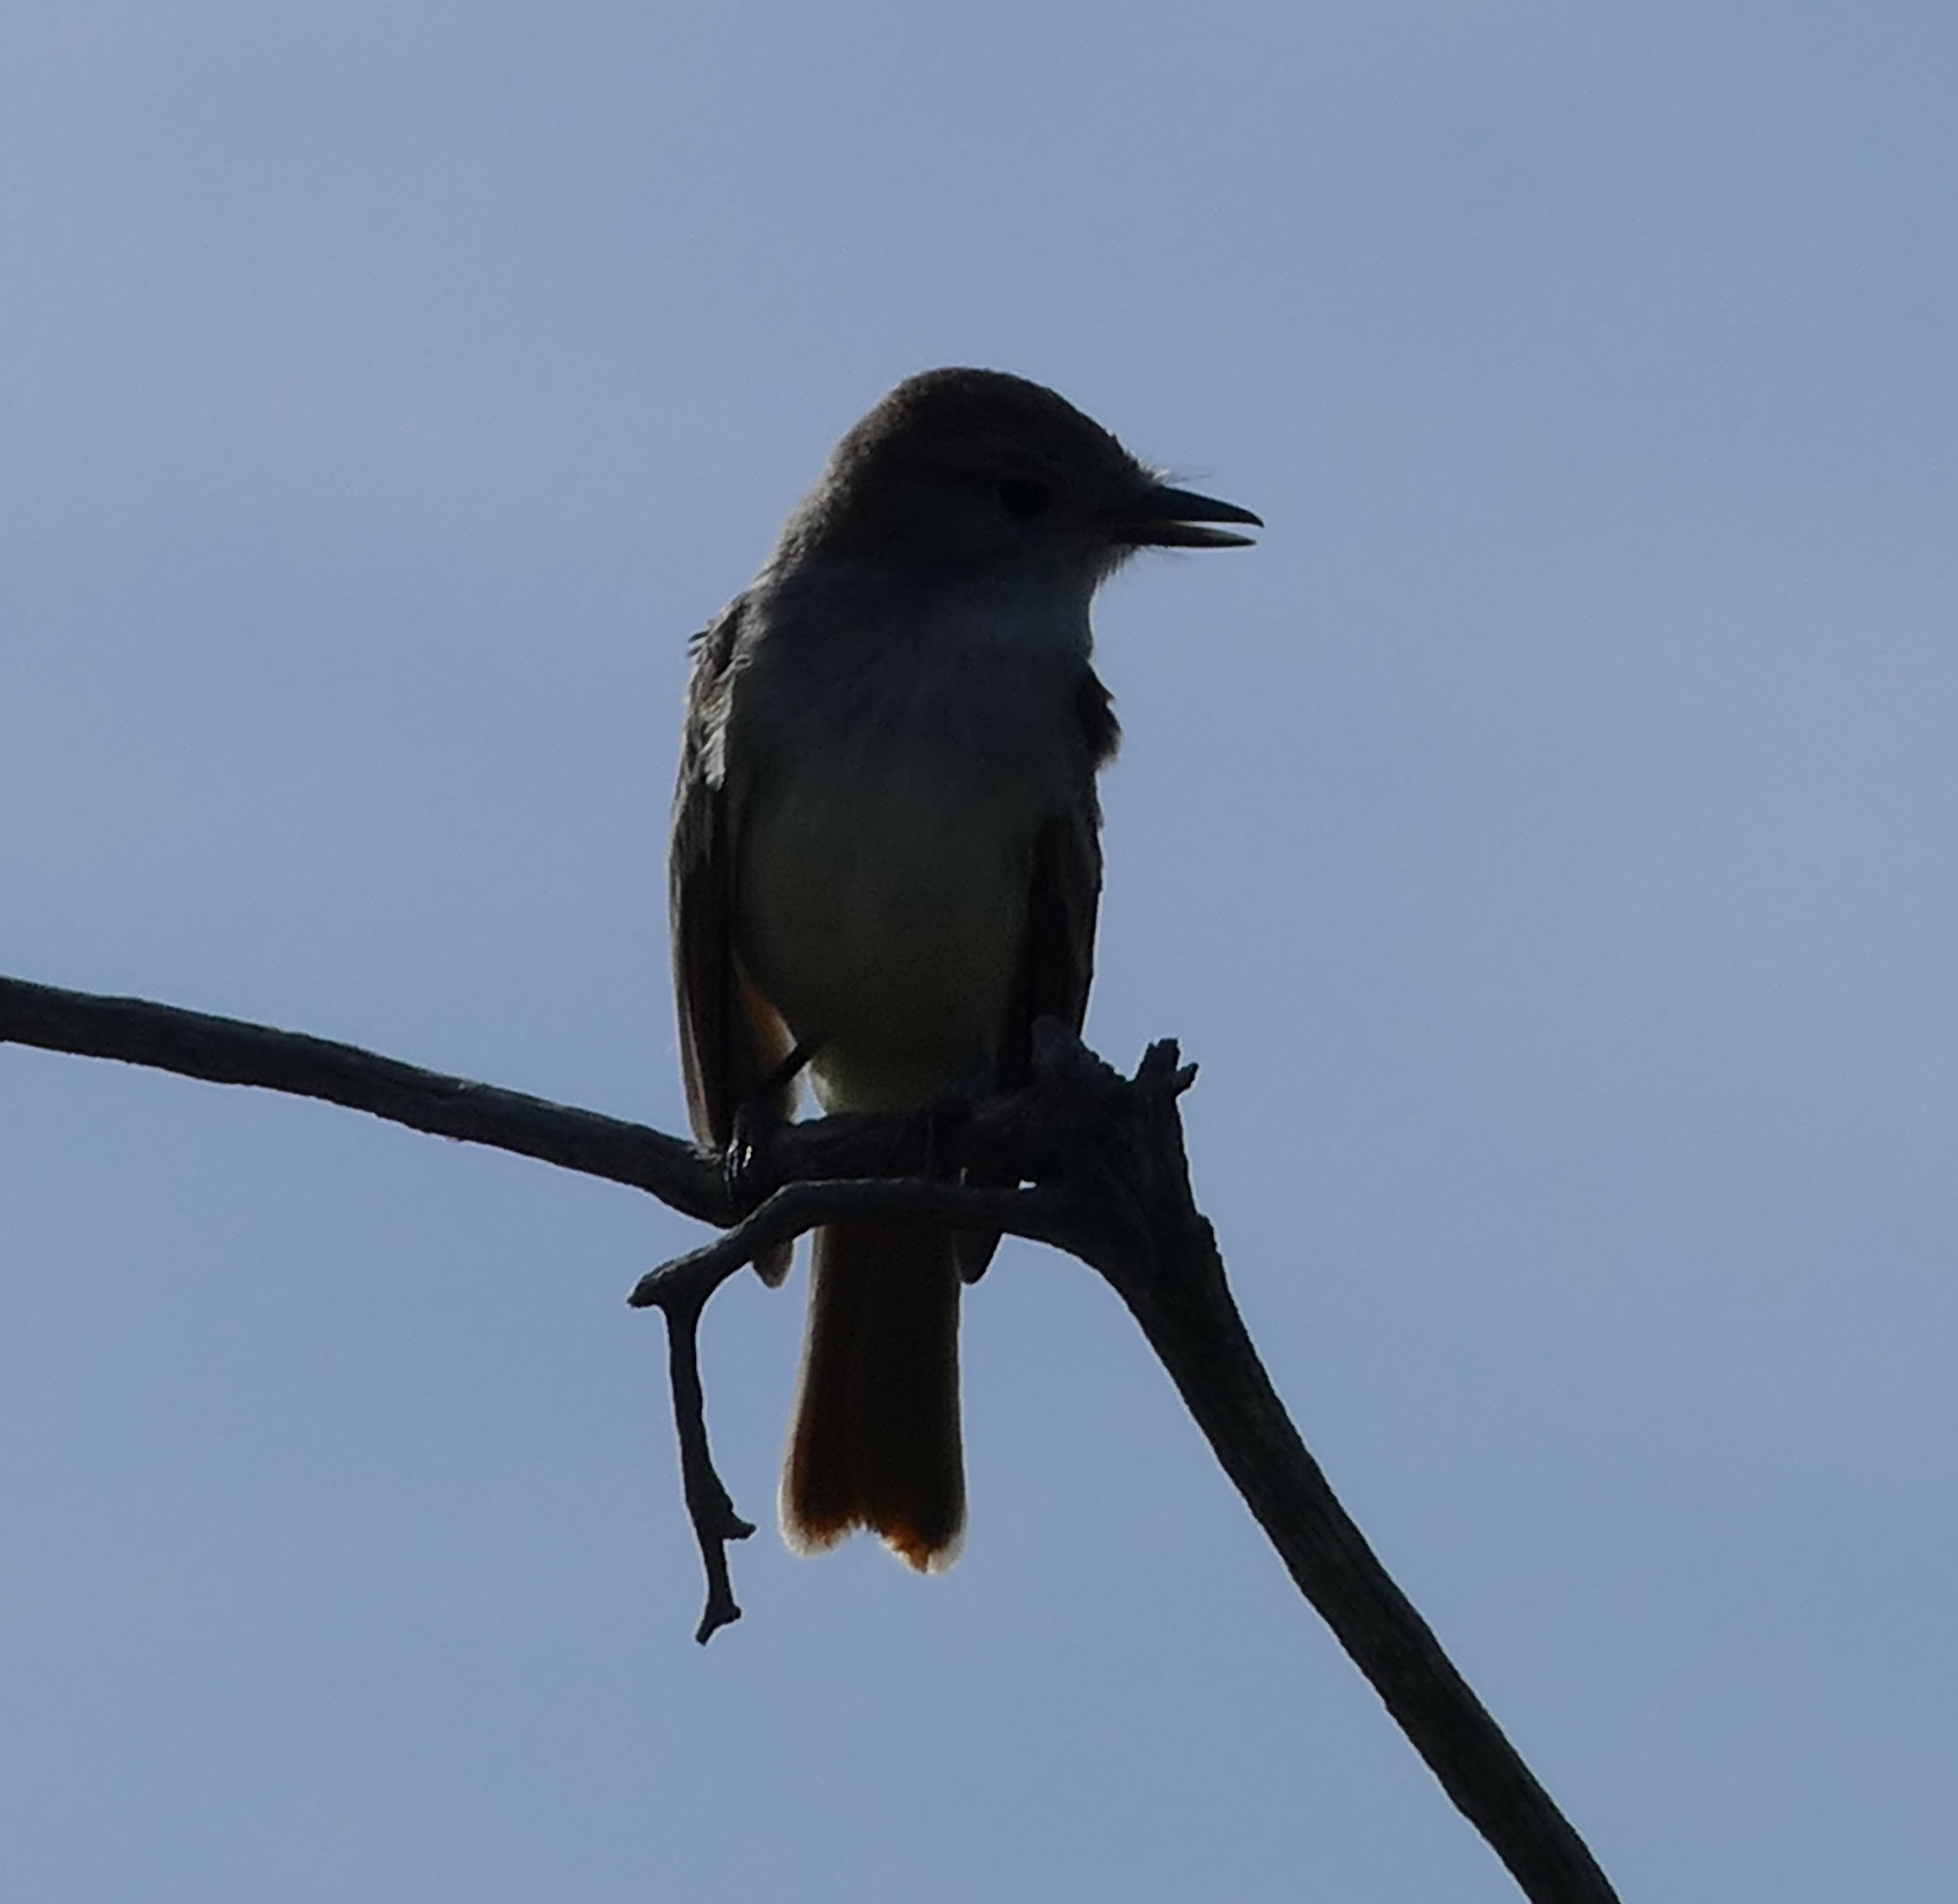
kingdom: Animalia
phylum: Chordata
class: Aves
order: Passeriformes
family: Tyrannidae
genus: Myiarchus
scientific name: Myiarchus cinerascens
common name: Ash-throated flycatcher
